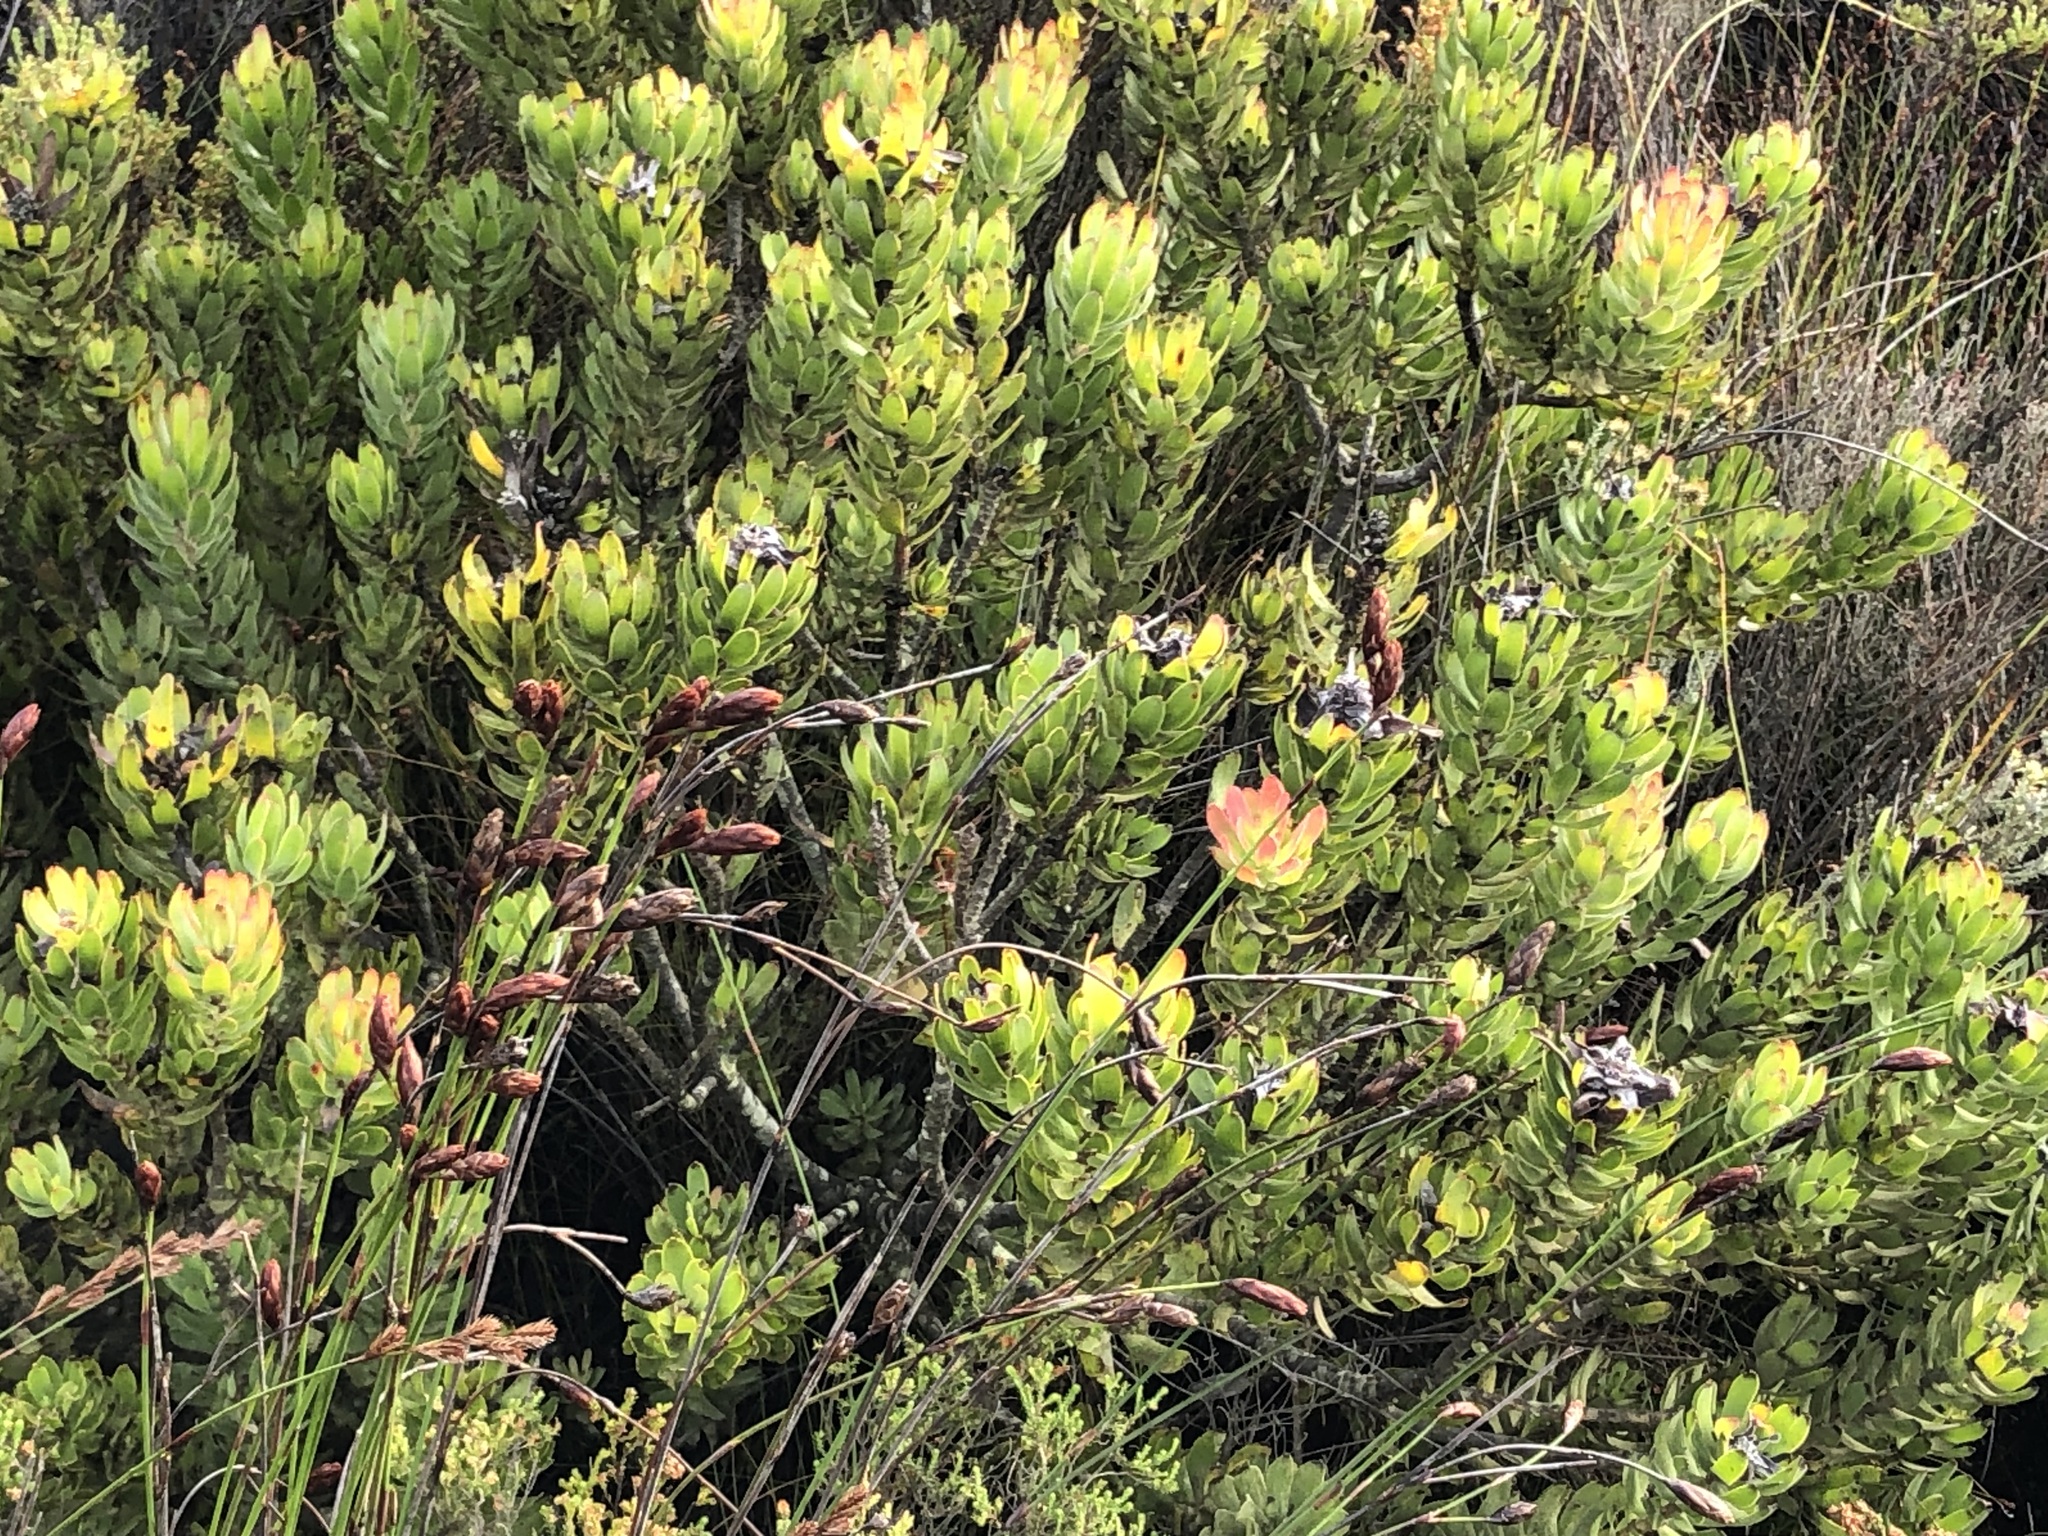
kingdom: Plantae
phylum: Tracheophyta
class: Magnoliopsida
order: Proteales
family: Proteaceae
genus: Mimetes
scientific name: Mimetes cucullatus
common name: Common pagoda
